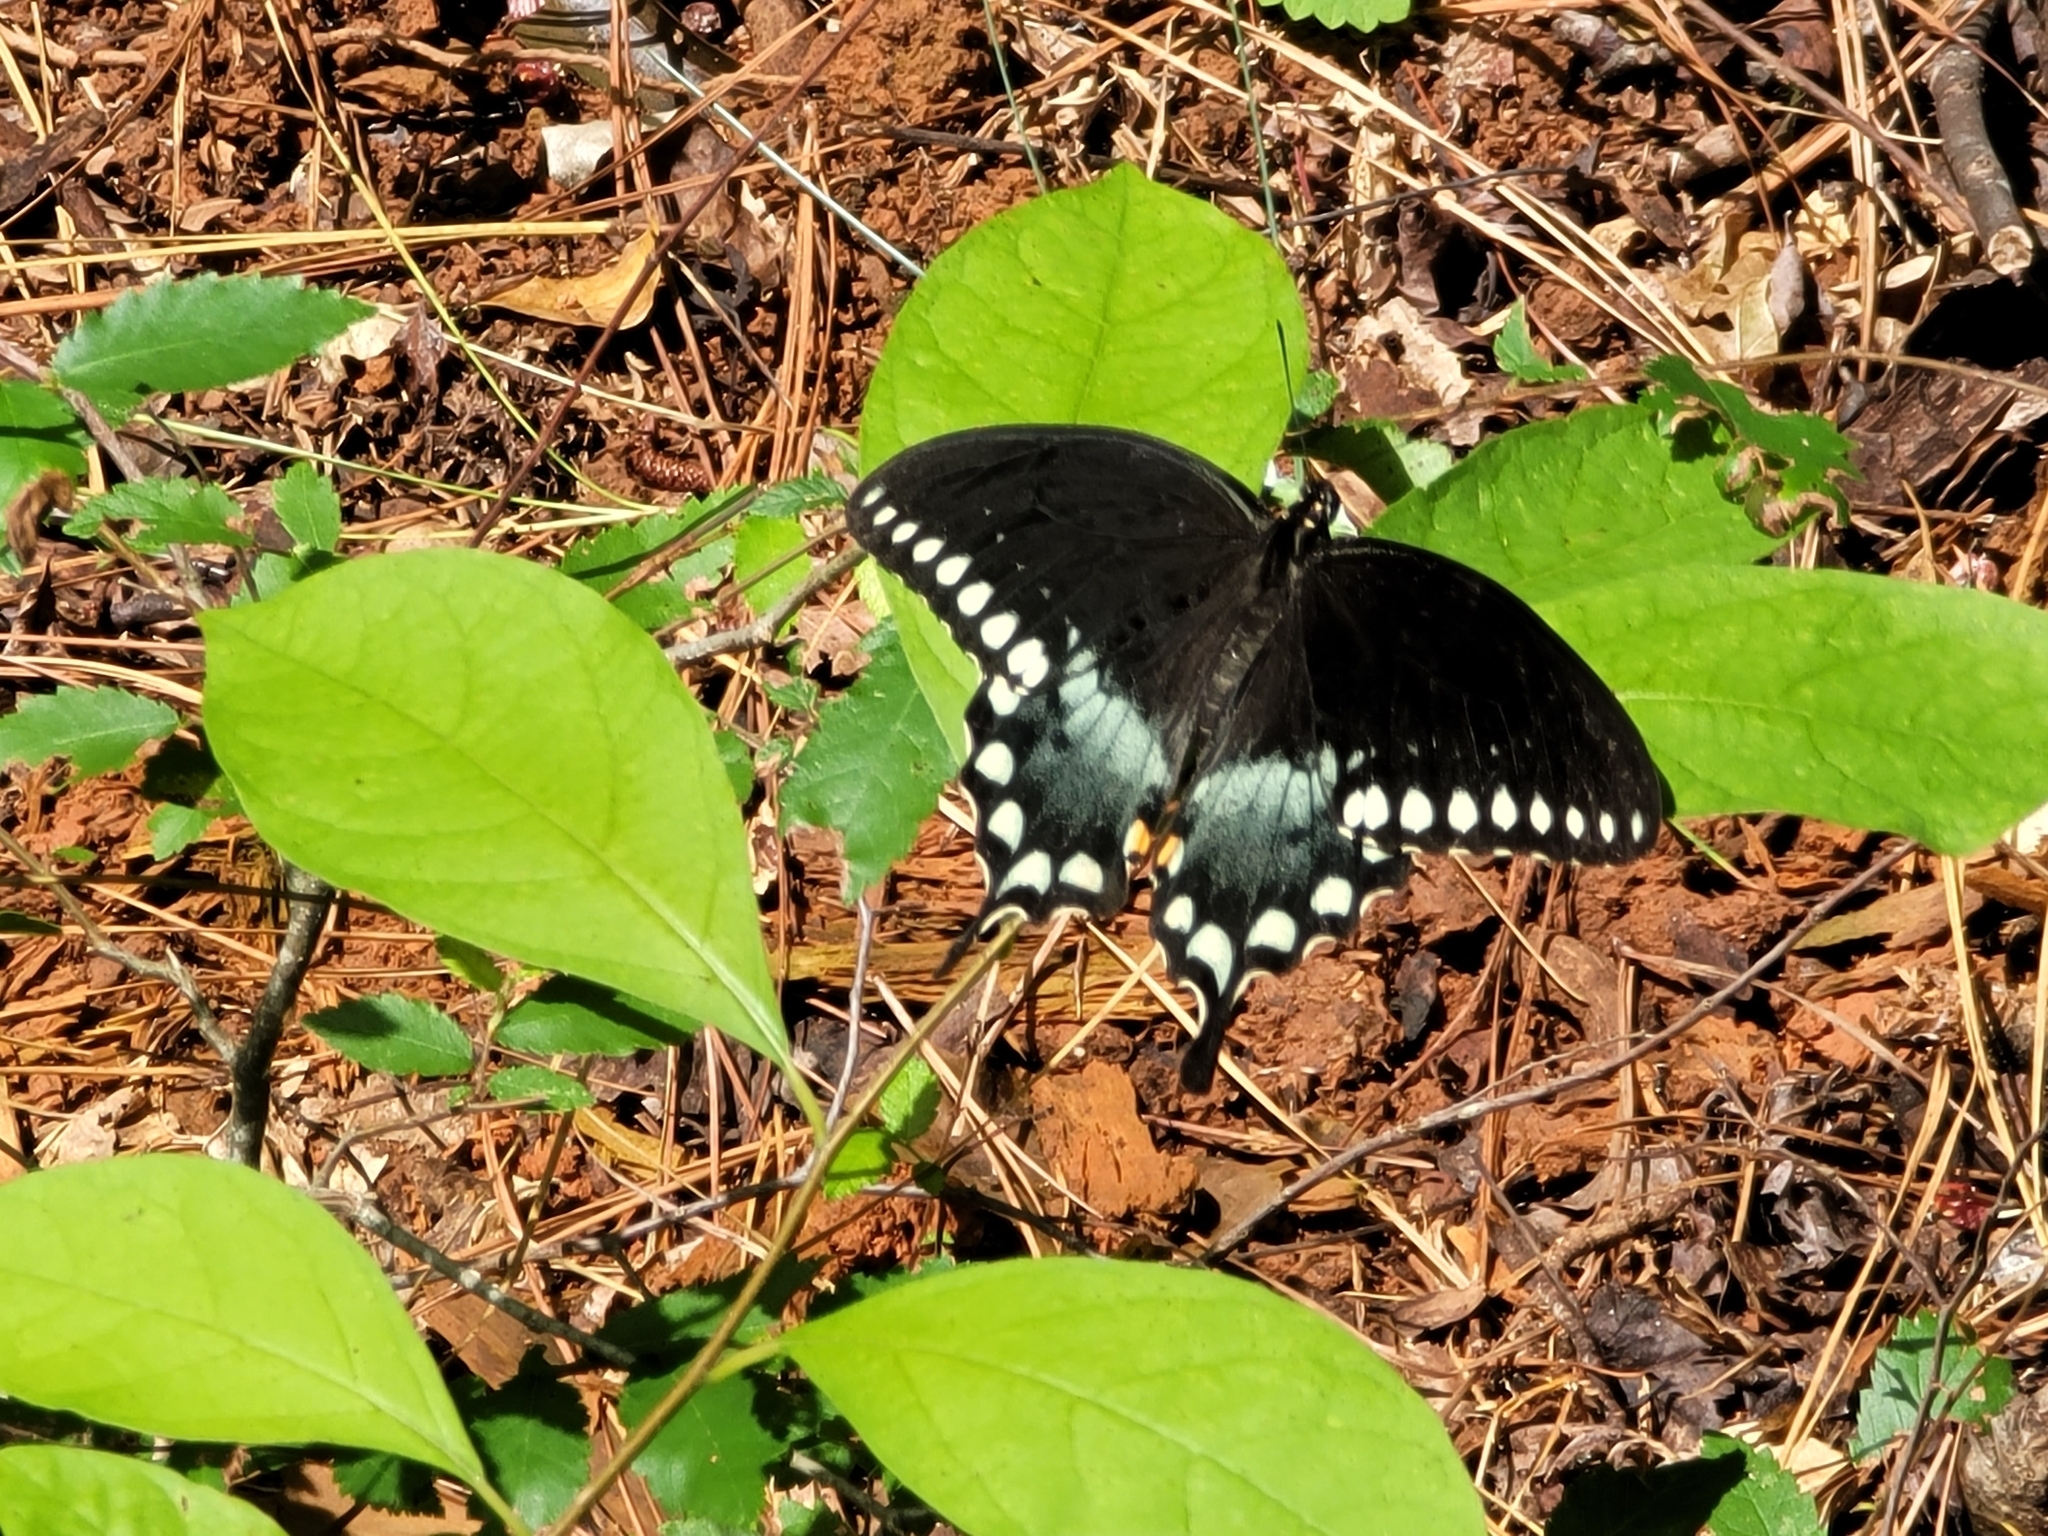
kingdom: Animalia
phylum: Arthropoda
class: Insecta
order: Lepidoptera
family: Papilionidae
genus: Papilio
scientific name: Papilio troilus
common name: Spicebush swallowtail
